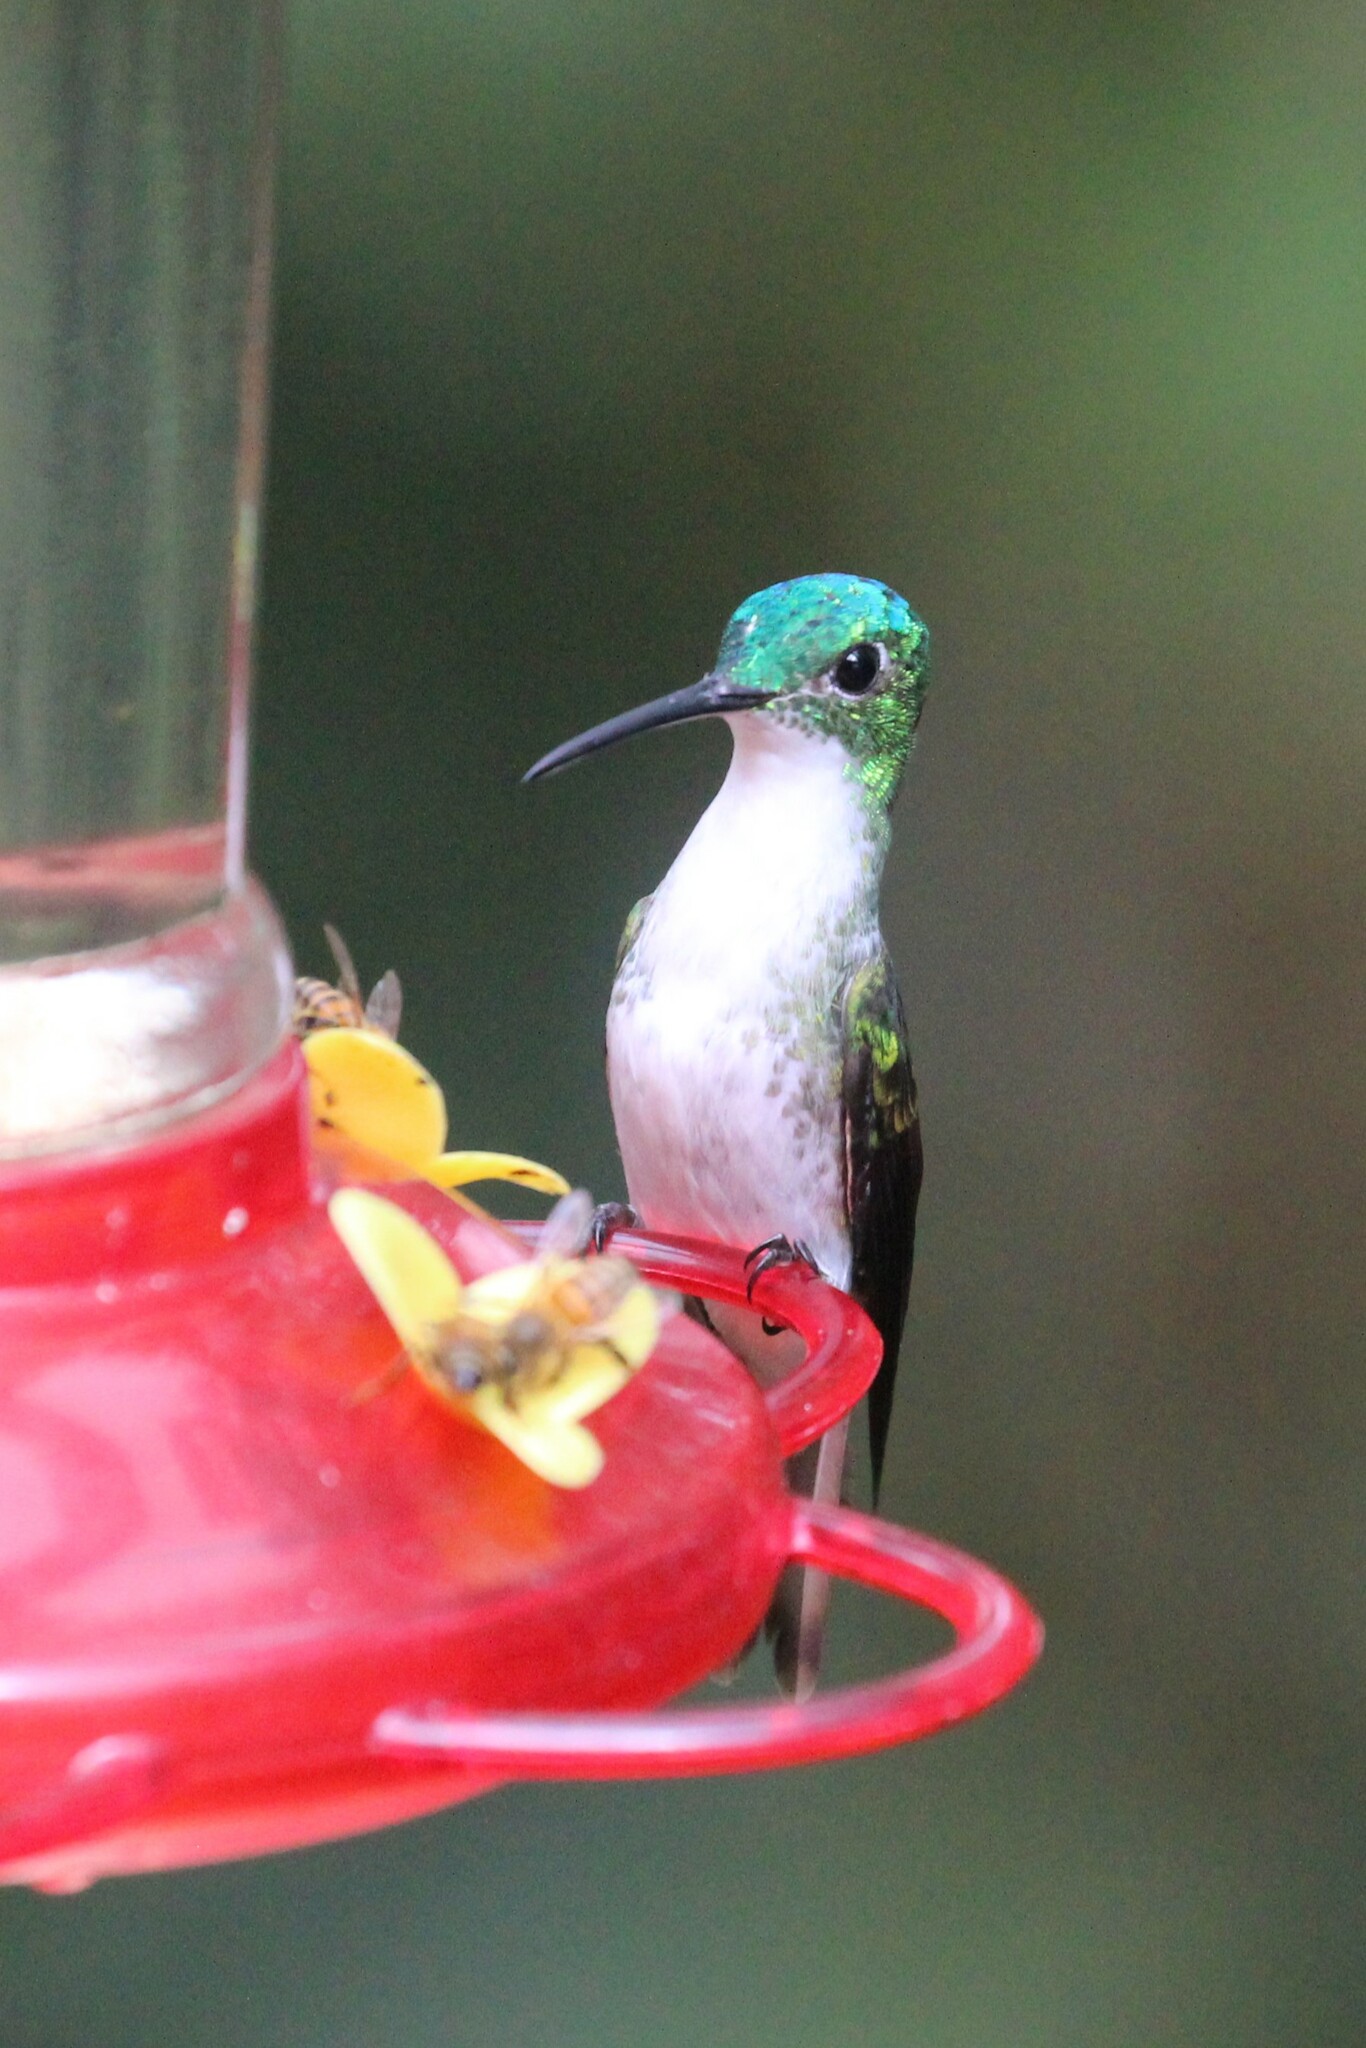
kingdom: Animalia
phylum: Chordata
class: Aves
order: Apodiformes
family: Trochilidae
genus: Uranomitra
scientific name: Uranomitra franciae
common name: Andean emerald
